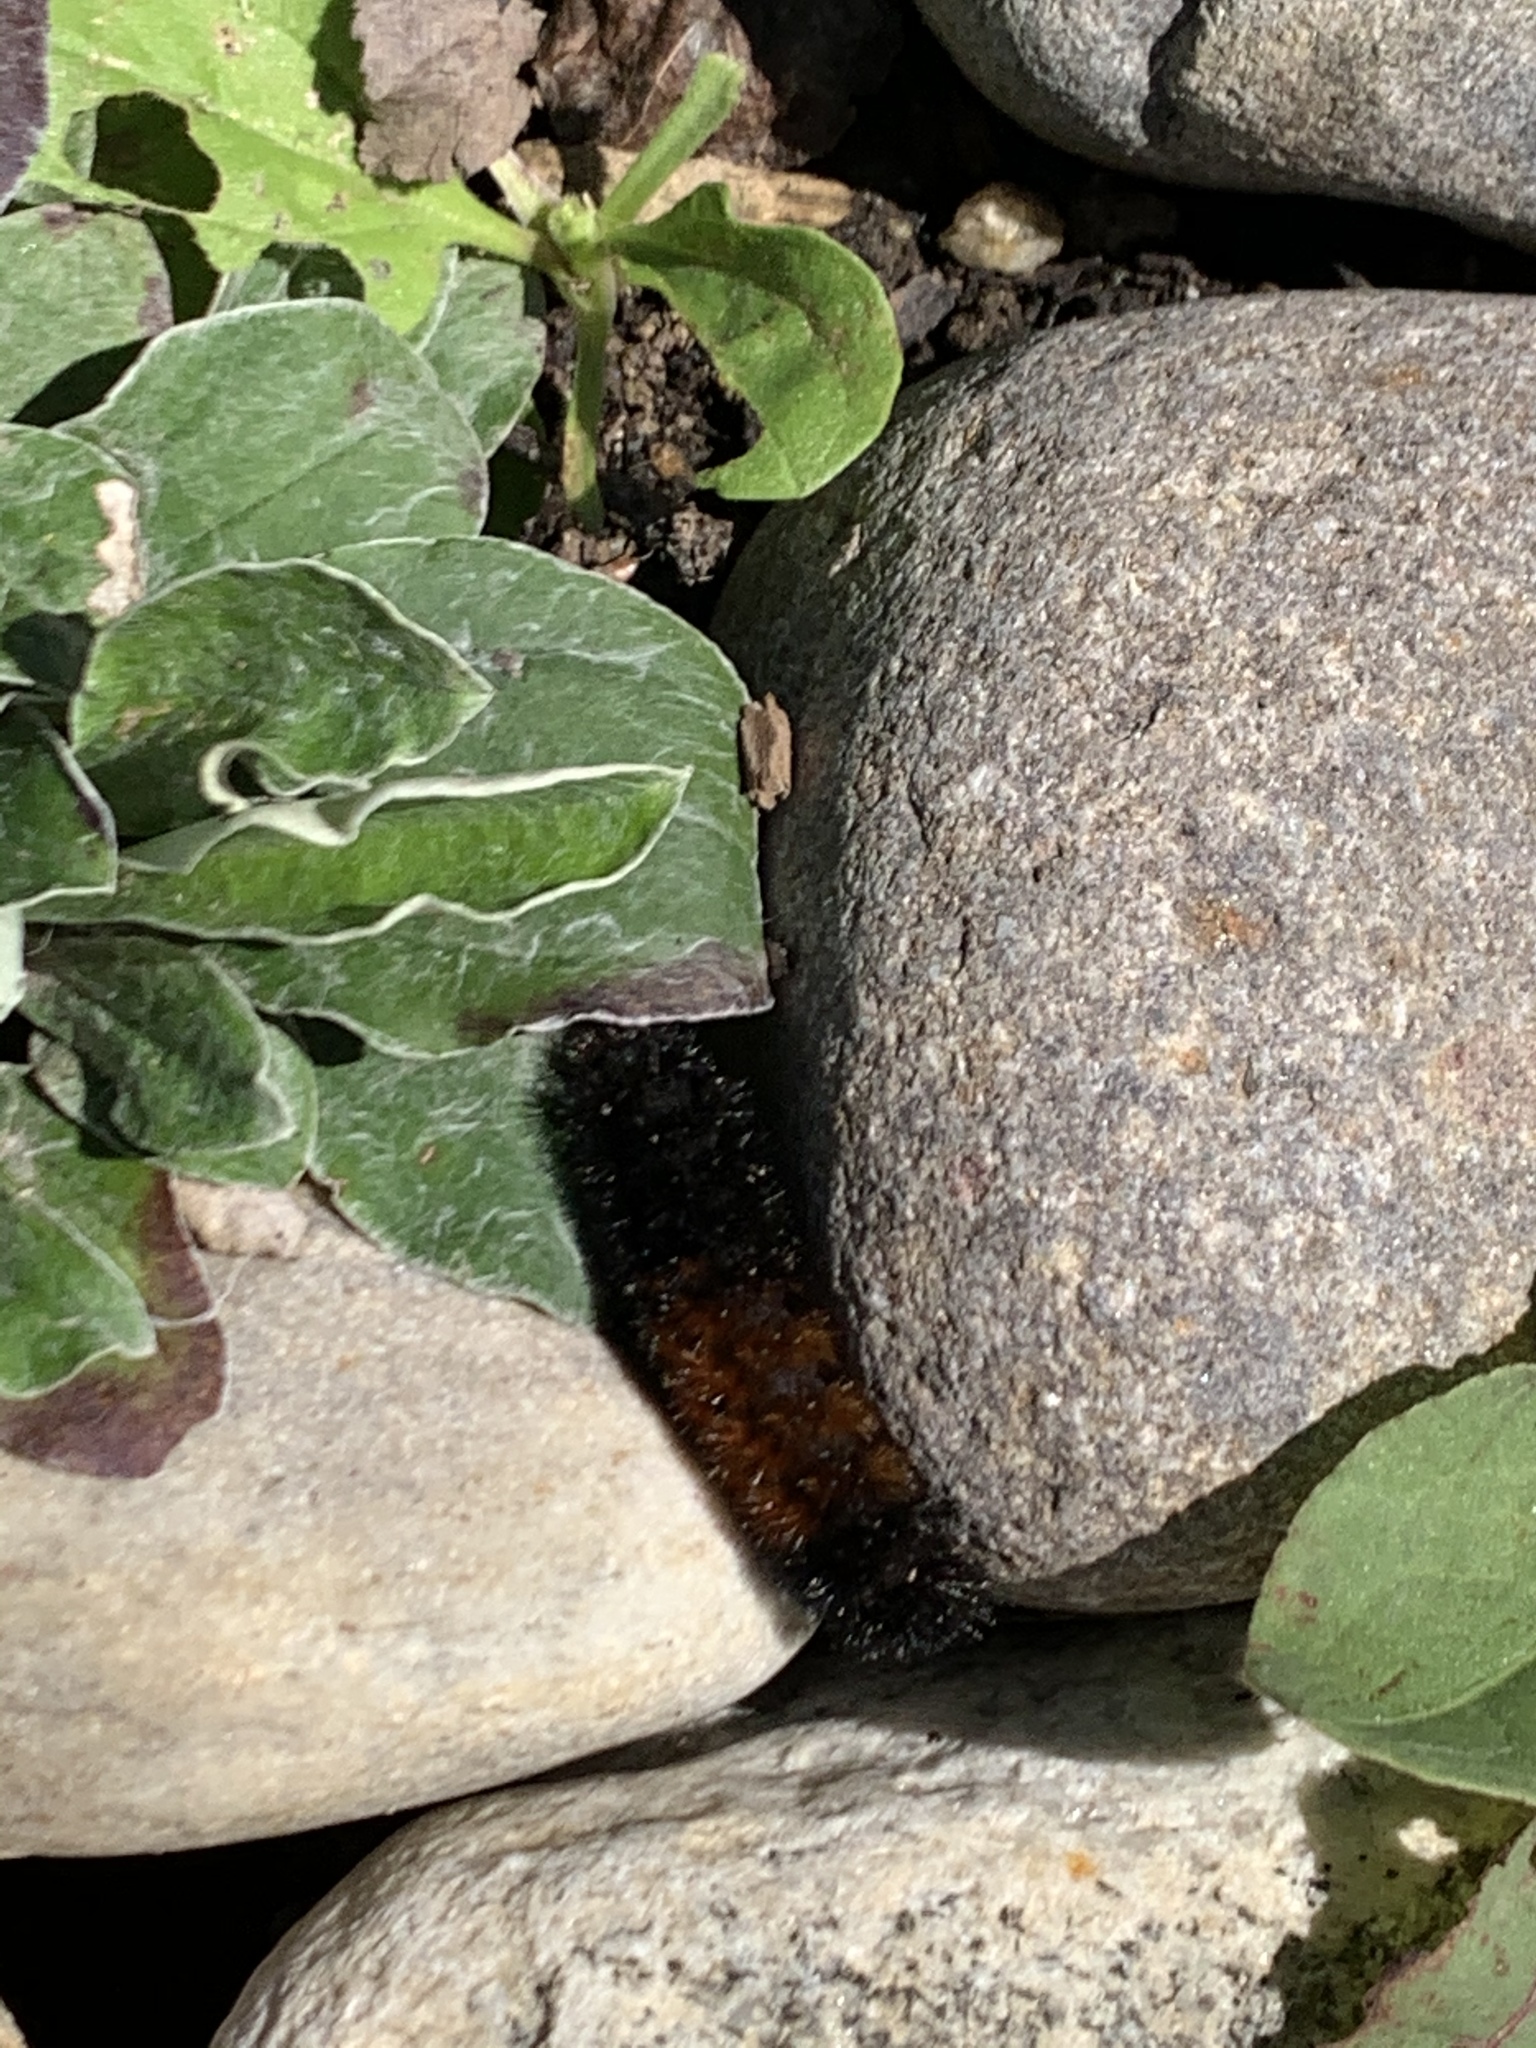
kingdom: Animalia
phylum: Arthropoda
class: Insecta
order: Lepidoptera
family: Erebidae
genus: Pyrrharctia
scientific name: Pyrrharctia isabella
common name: Isabella tiger moth
